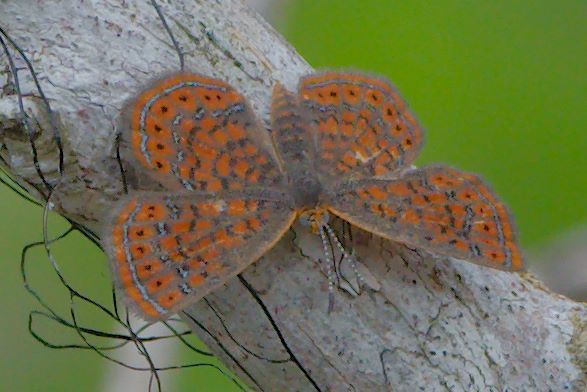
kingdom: Animalia
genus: Calephelis
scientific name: Calephelis virginiensis
